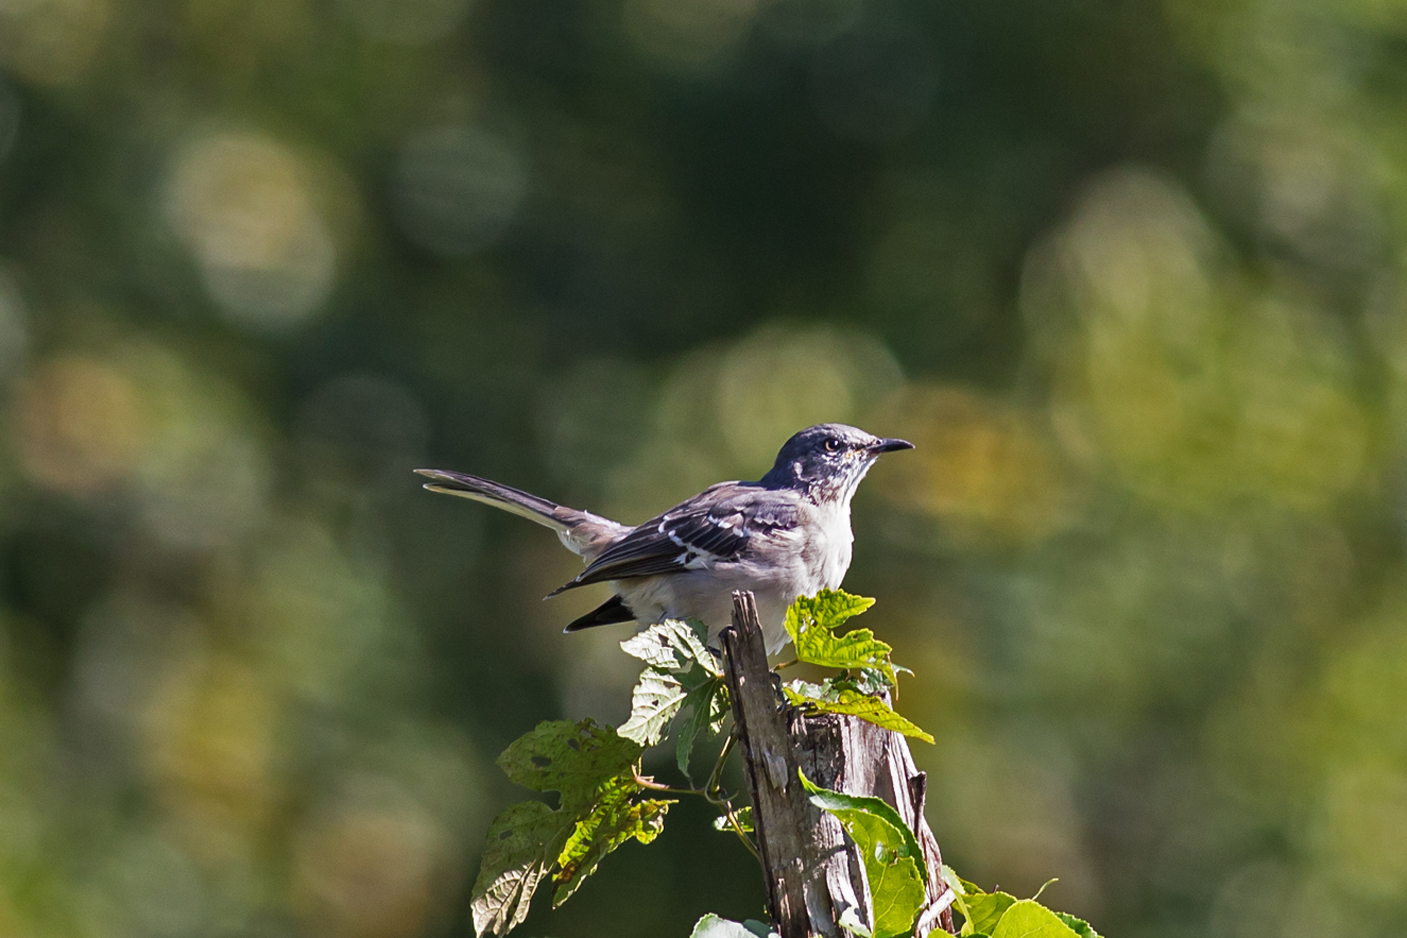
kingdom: Animalia
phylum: Chordata
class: Aves
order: Passeriformes
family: Mimidae
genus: Mimus
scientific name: Mimus polyglottos
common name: Northern mockingbird
